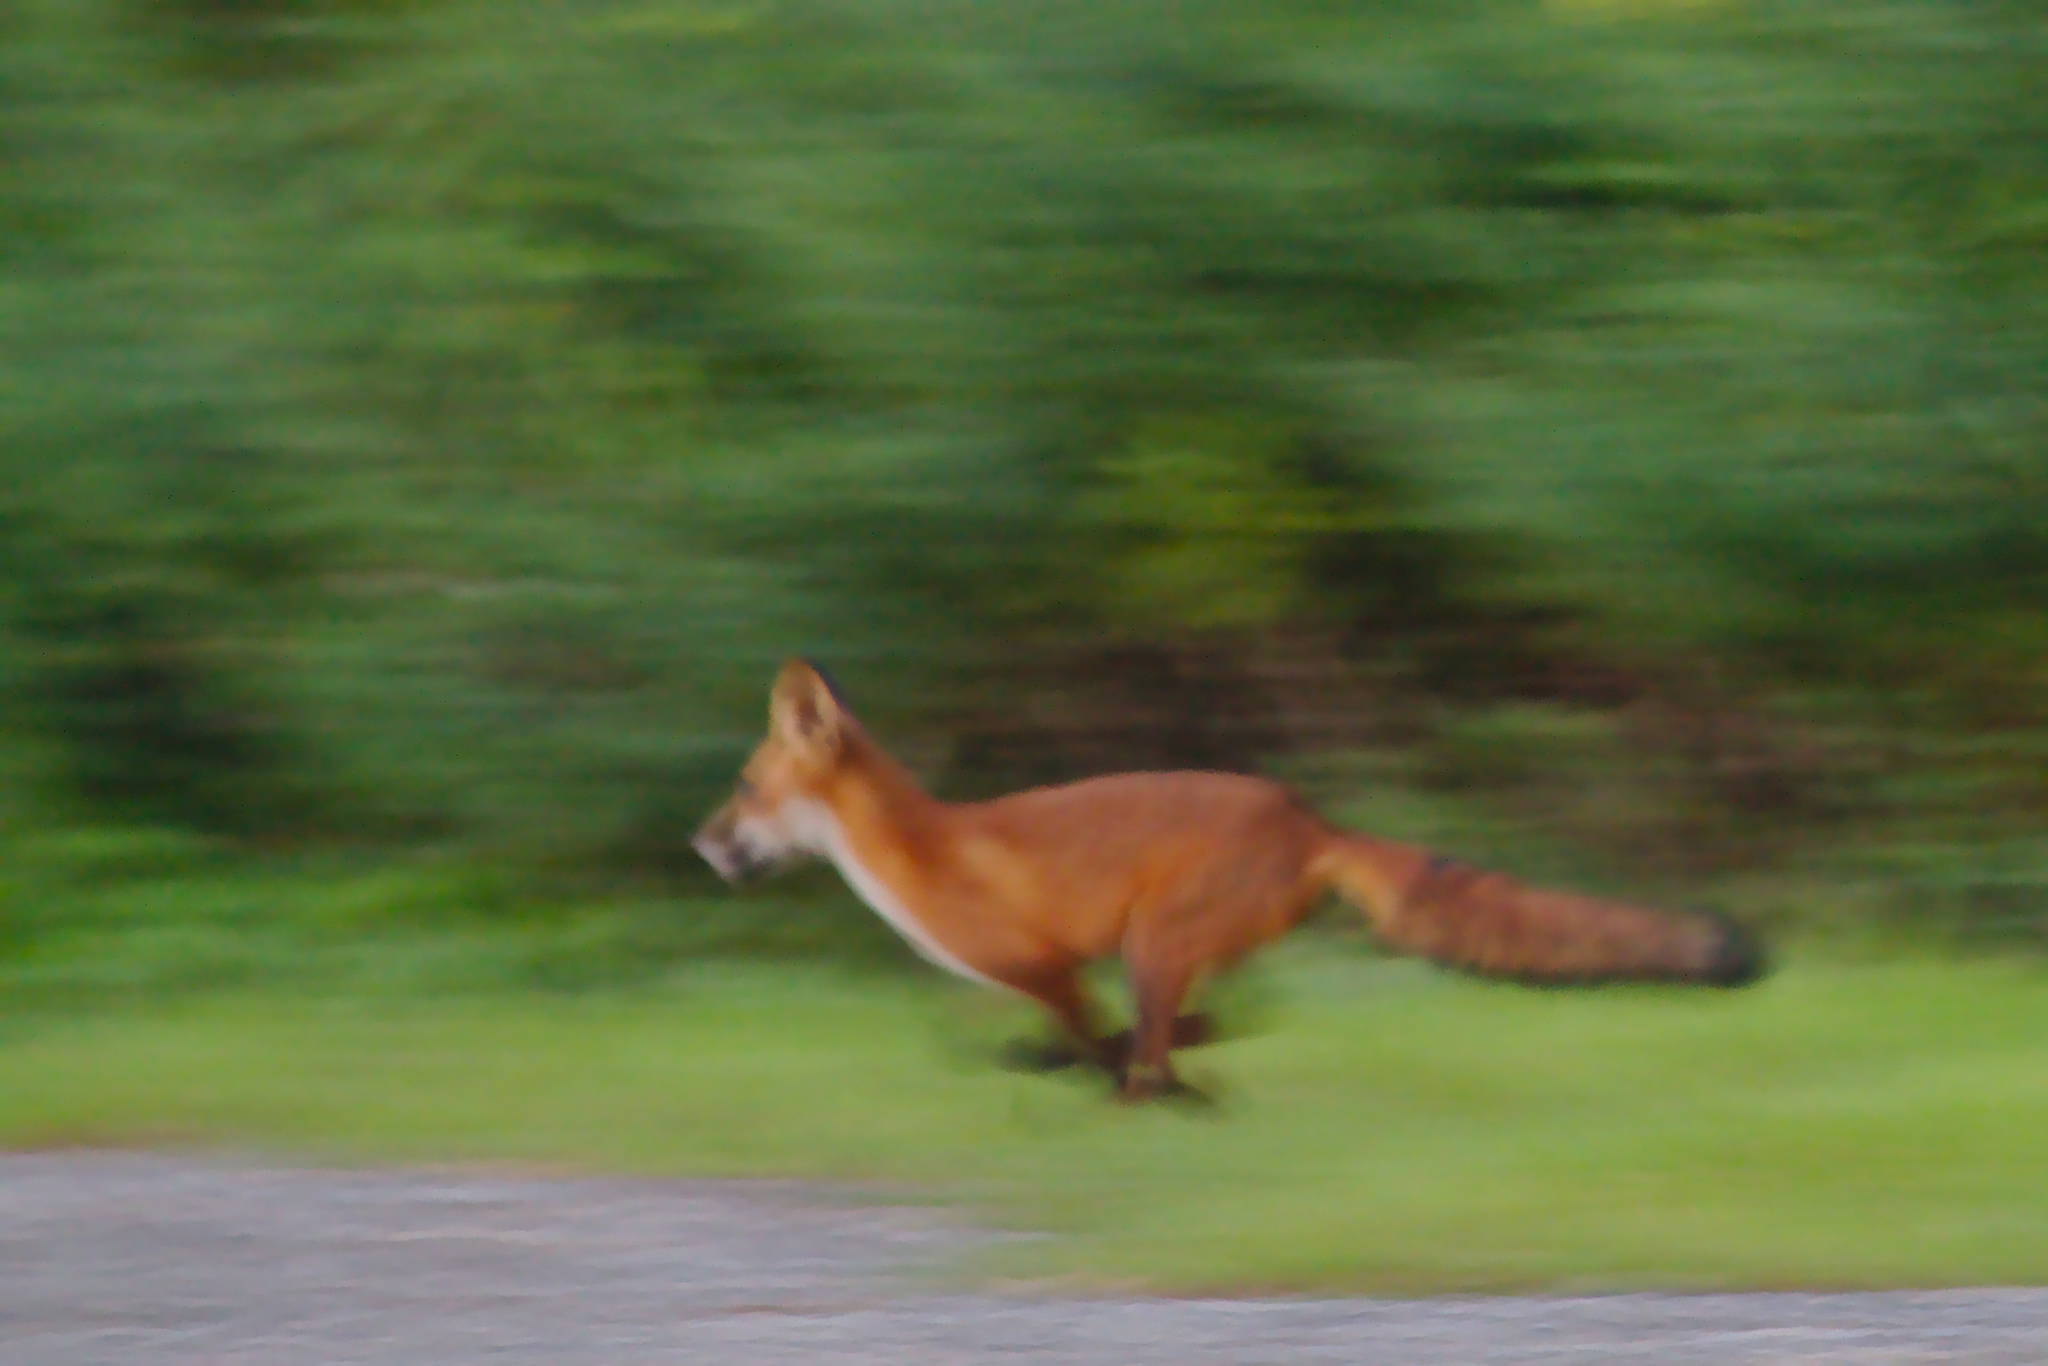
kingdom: Animalia
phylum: Chordata
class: Mammalia
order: Carnivora
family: Canidae
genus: Vulpes
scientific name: Vulpes vulpes
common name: Red fox
